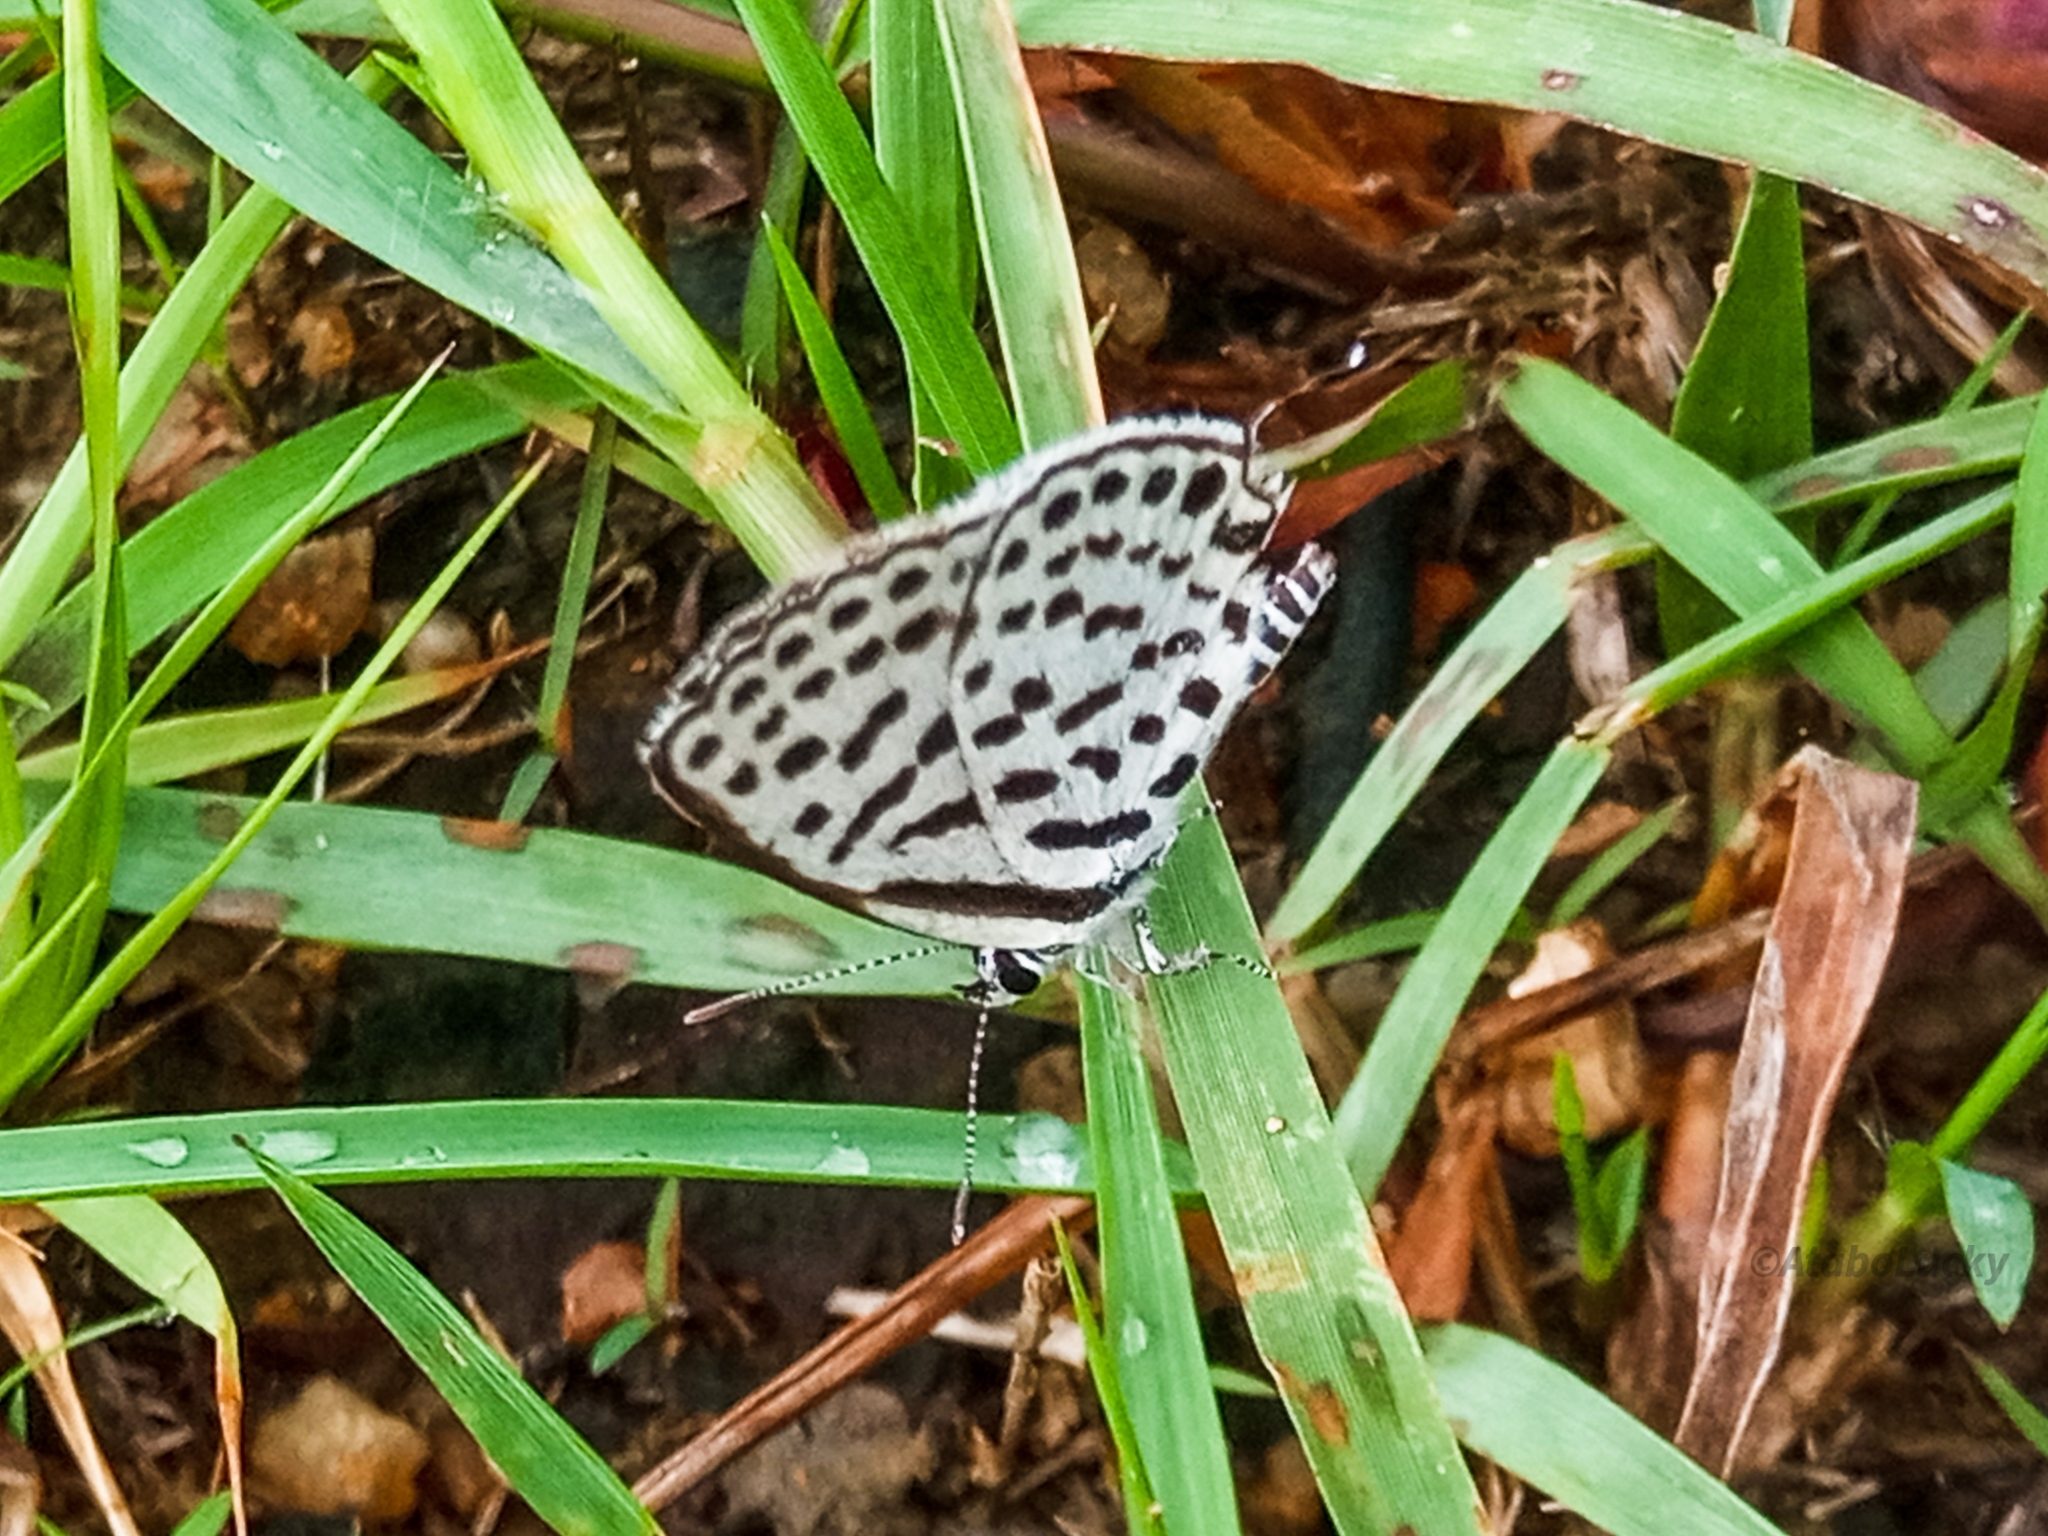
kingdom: Animalia
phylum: Arthropoda
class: Insecta
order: Lepidoptera
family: Lycaenidae
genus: Tarucus
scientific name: Tarucus theophrastus
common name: Common tiger blue
